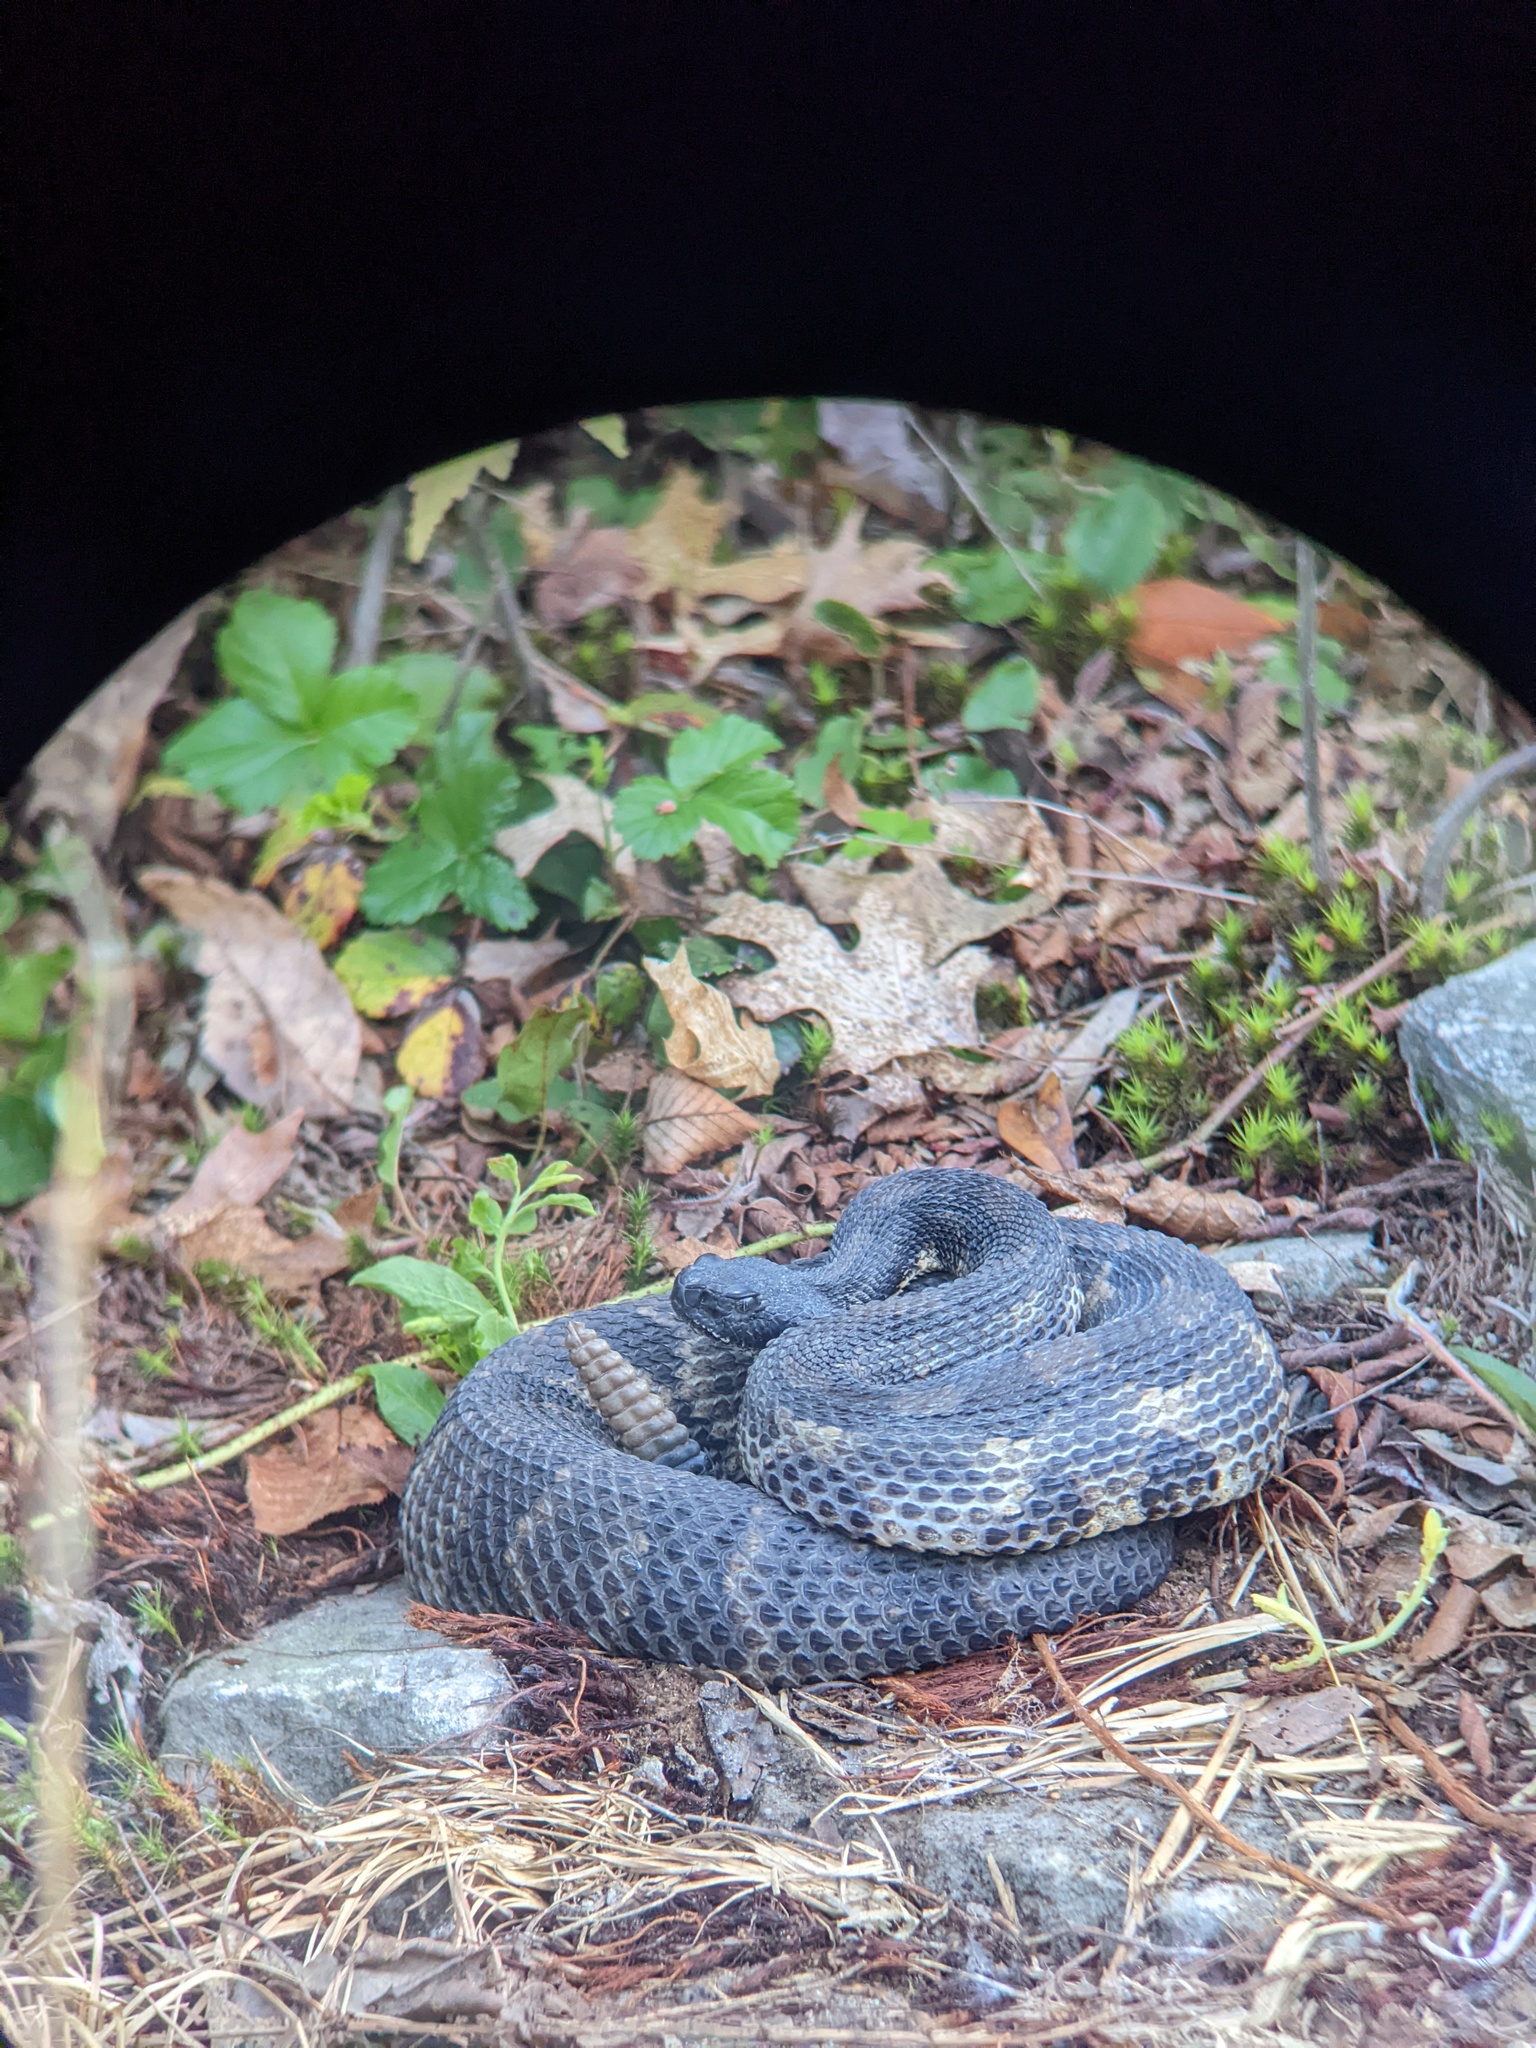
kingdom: Animalia
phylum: Chordata
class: Squamata
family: Viperidae
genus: Crotalus
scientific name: Crotalus horridus
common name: Timber rattlesnake
